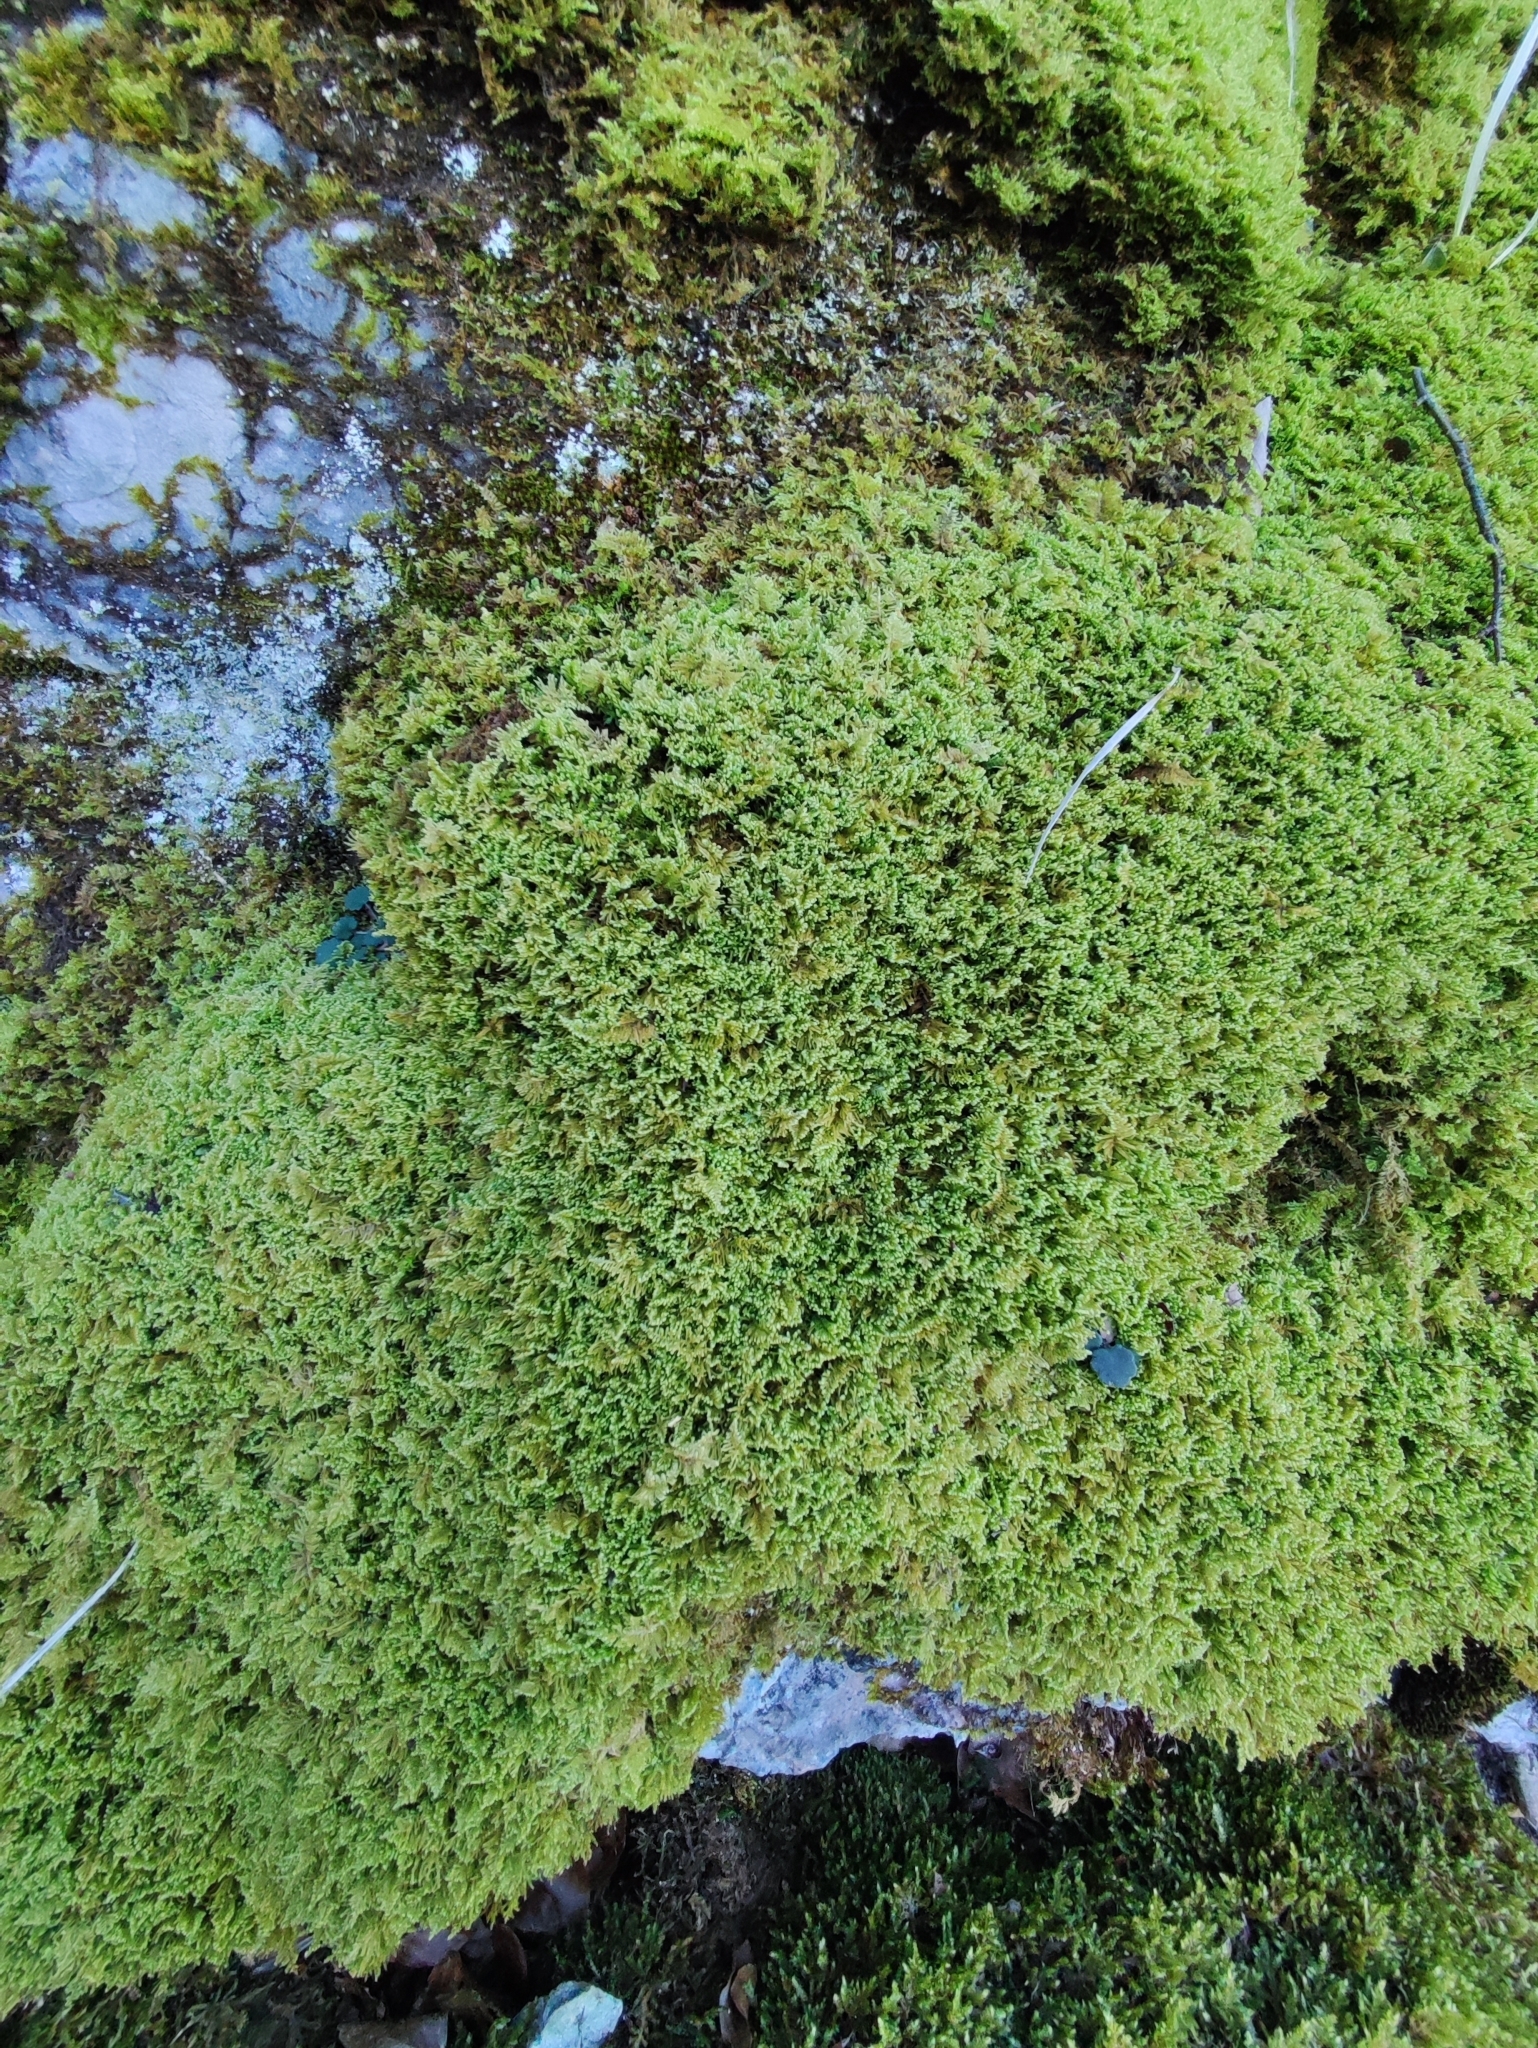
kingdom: Plantae
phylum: Bryophyta
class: Bryopsida
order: Hypnales
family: Myuriaceae
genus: Ctenidium
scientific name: Ctenidium molluscum
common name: Chalk comb-moss
